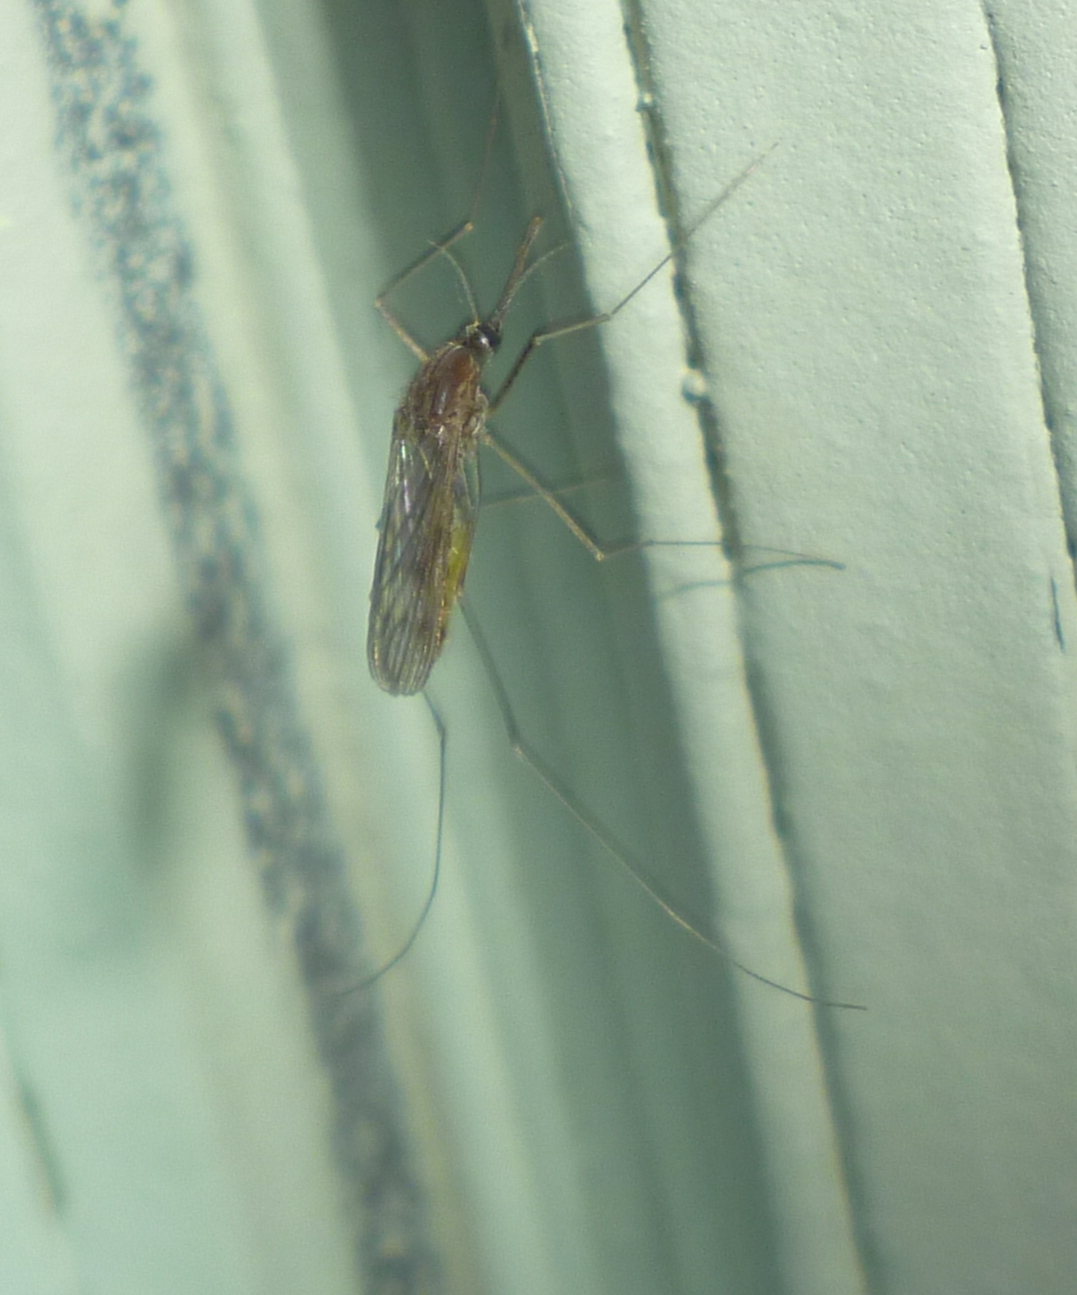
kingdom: Animalia
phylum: Arthropoda
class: Insecta
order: Diptera
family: Culicidae
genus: Anopheles
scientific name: Anopheles quadrimaculatus
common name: Common malaria mosquito
